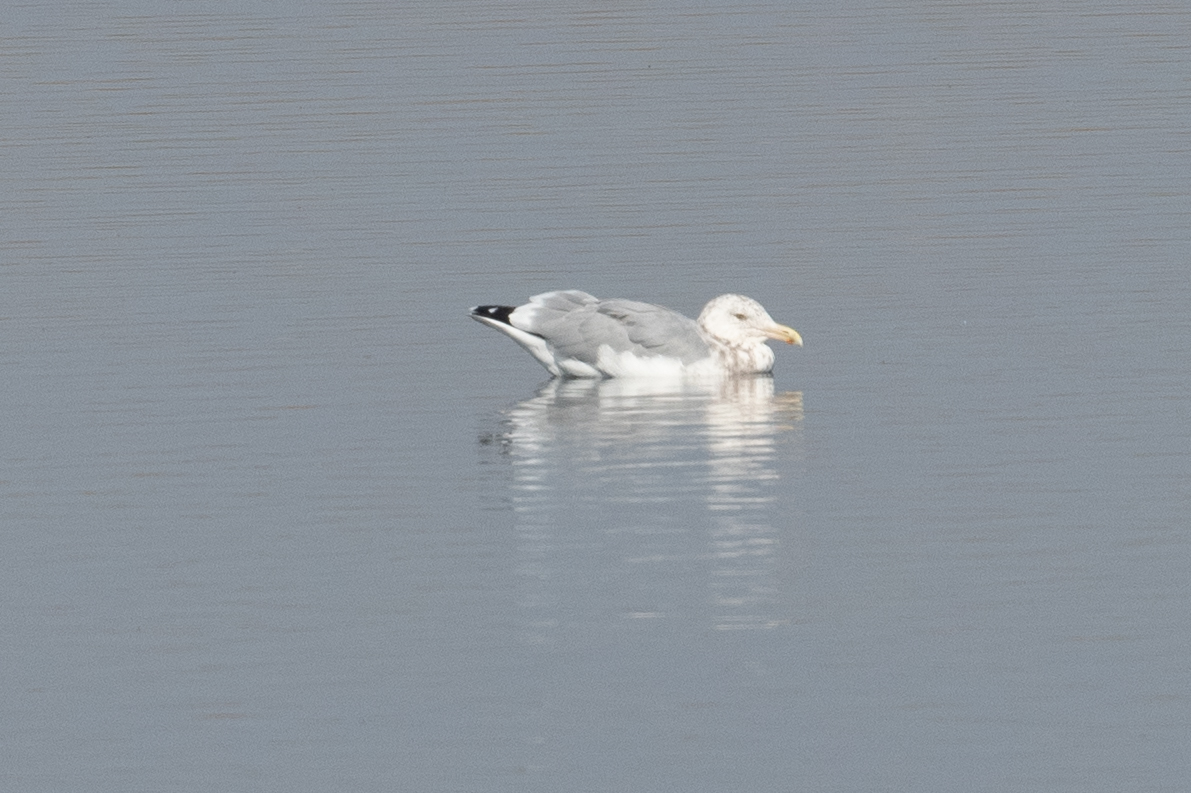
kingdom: Animalia
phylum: Chordata
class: Aves
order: Charadriiformes
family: Laridae
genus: Larus
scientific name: Larus argentatus
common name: Herring gull
